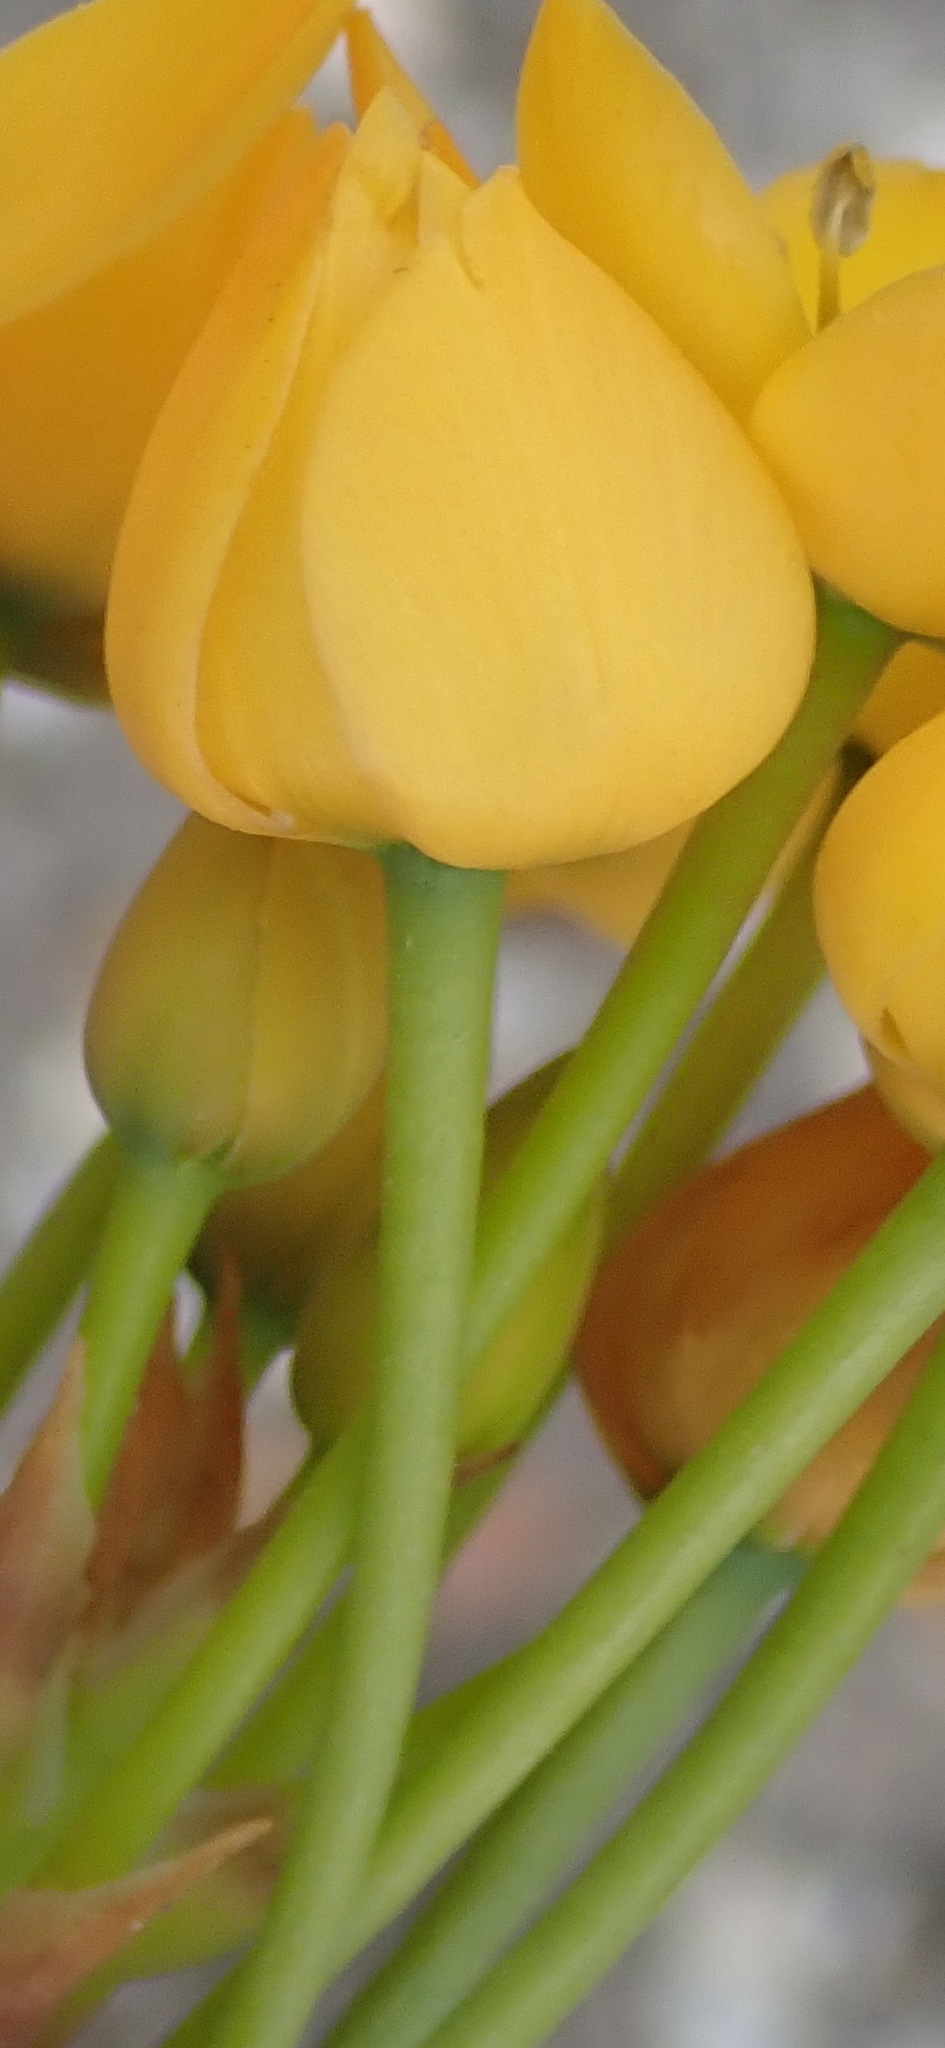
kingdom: Plantae
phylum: Tracheophyta
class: Liliopsida
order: Asparagales
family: Asparagaceae
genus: Ornithogalum
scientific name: Ornithogalum dubium
